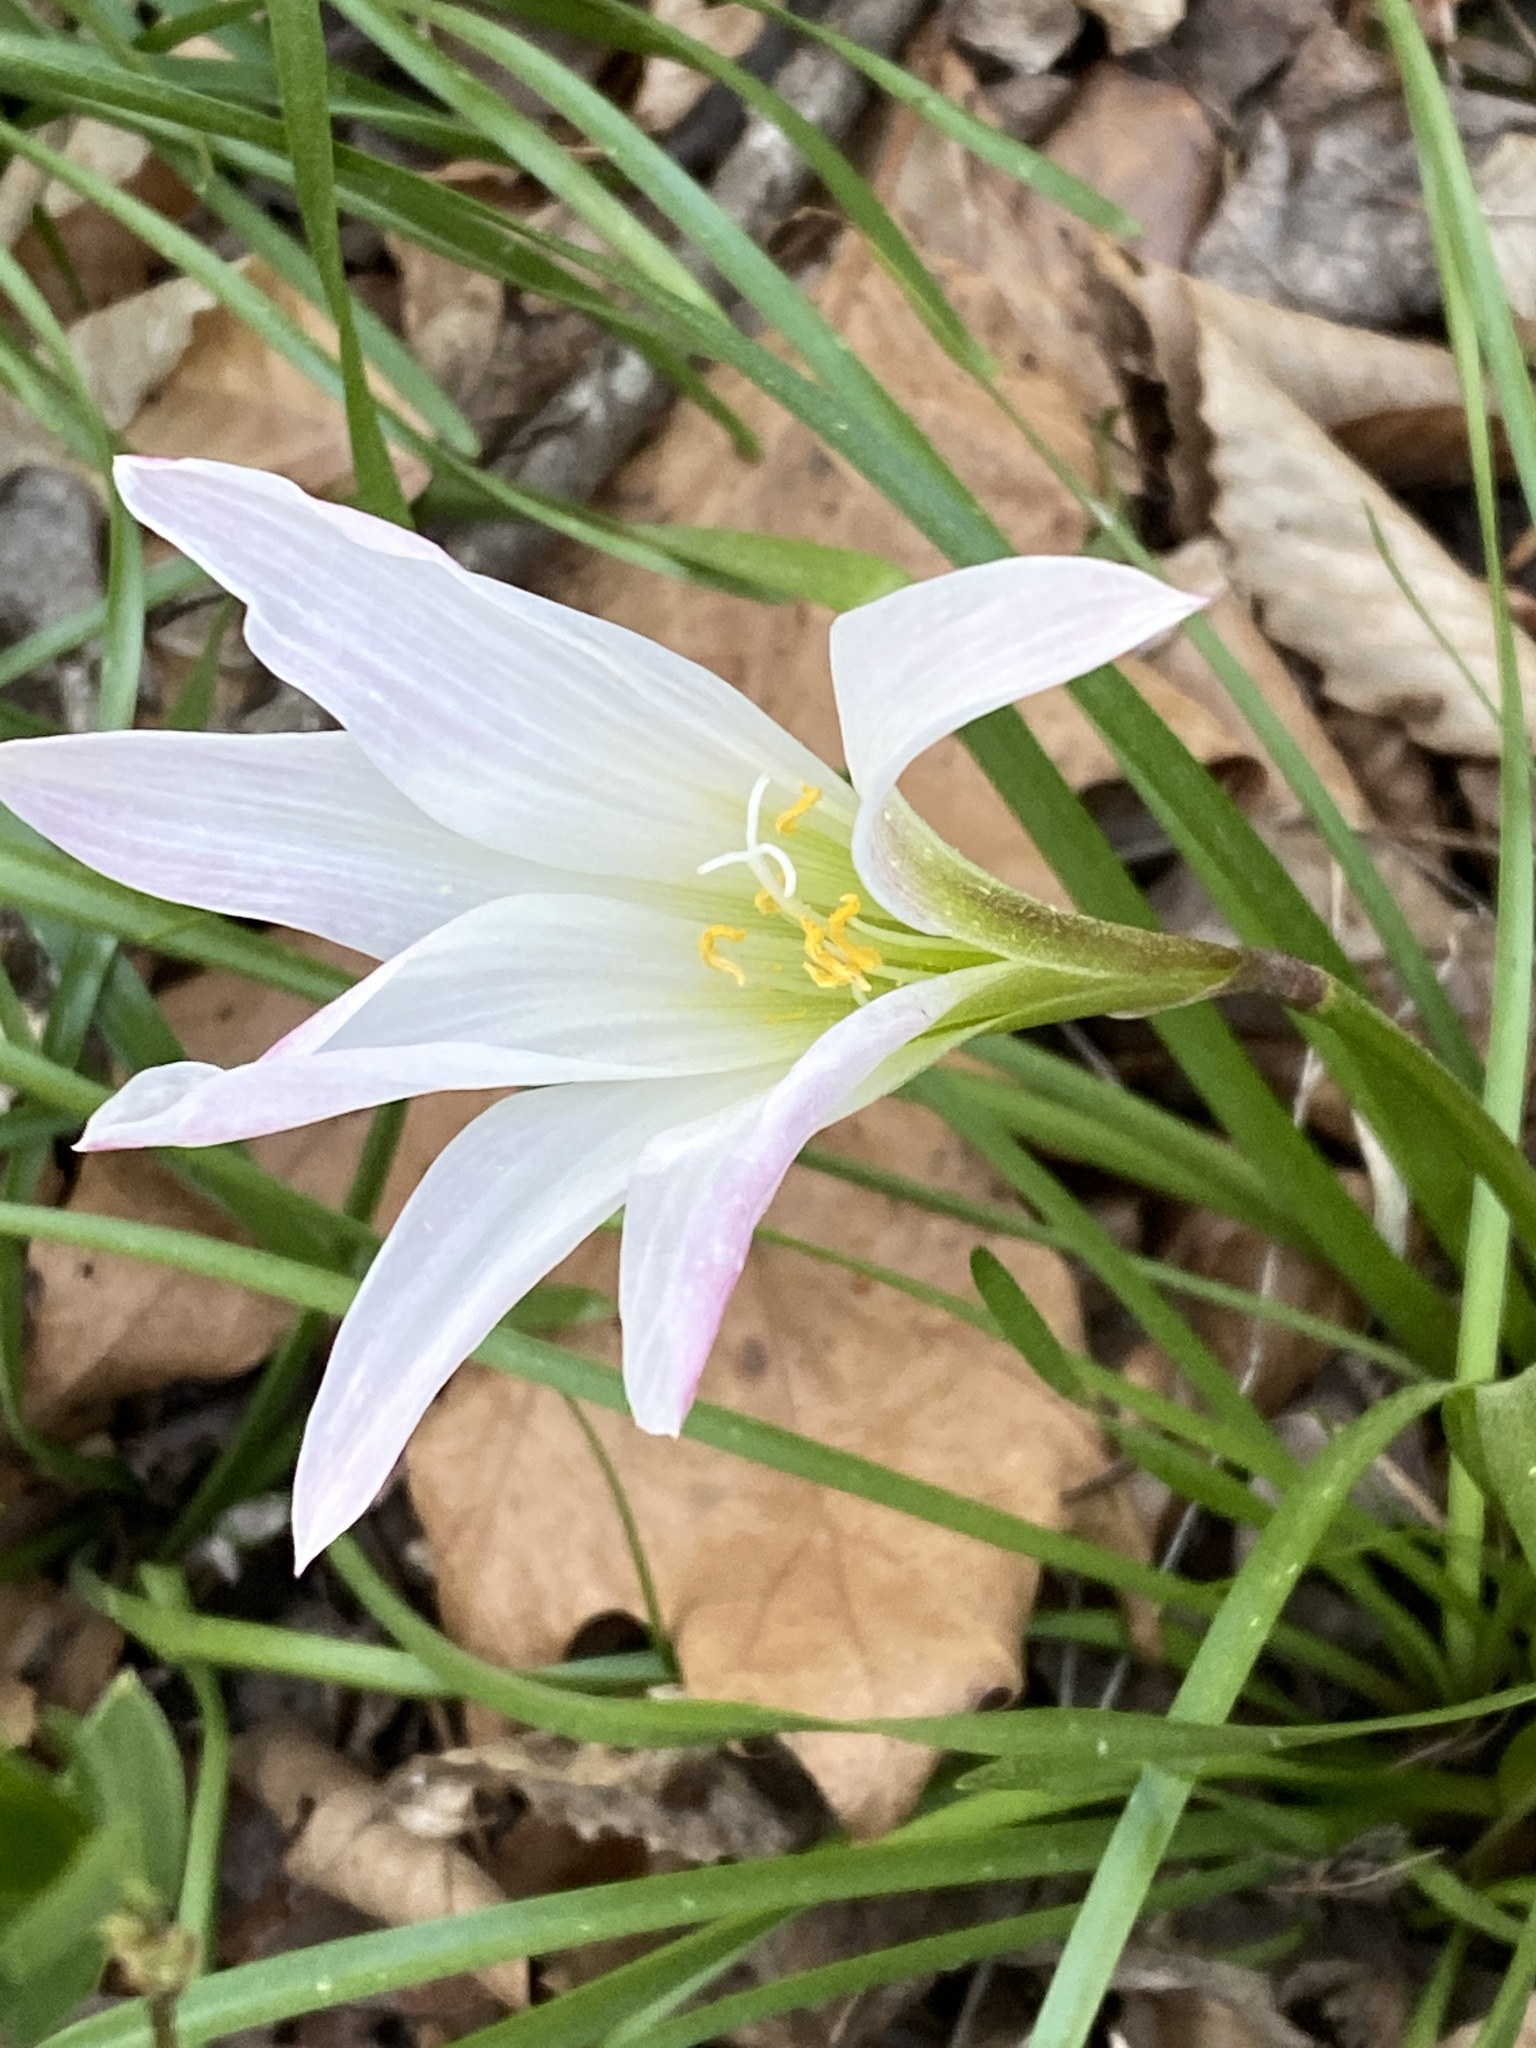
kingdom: Plantae
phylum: Tracheophyta
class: Liliopsida
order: Asparagales
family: Amaryllidaceae
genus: Zephyranthes
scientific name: Zephyranthes atamasco
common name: Atamasco lily
